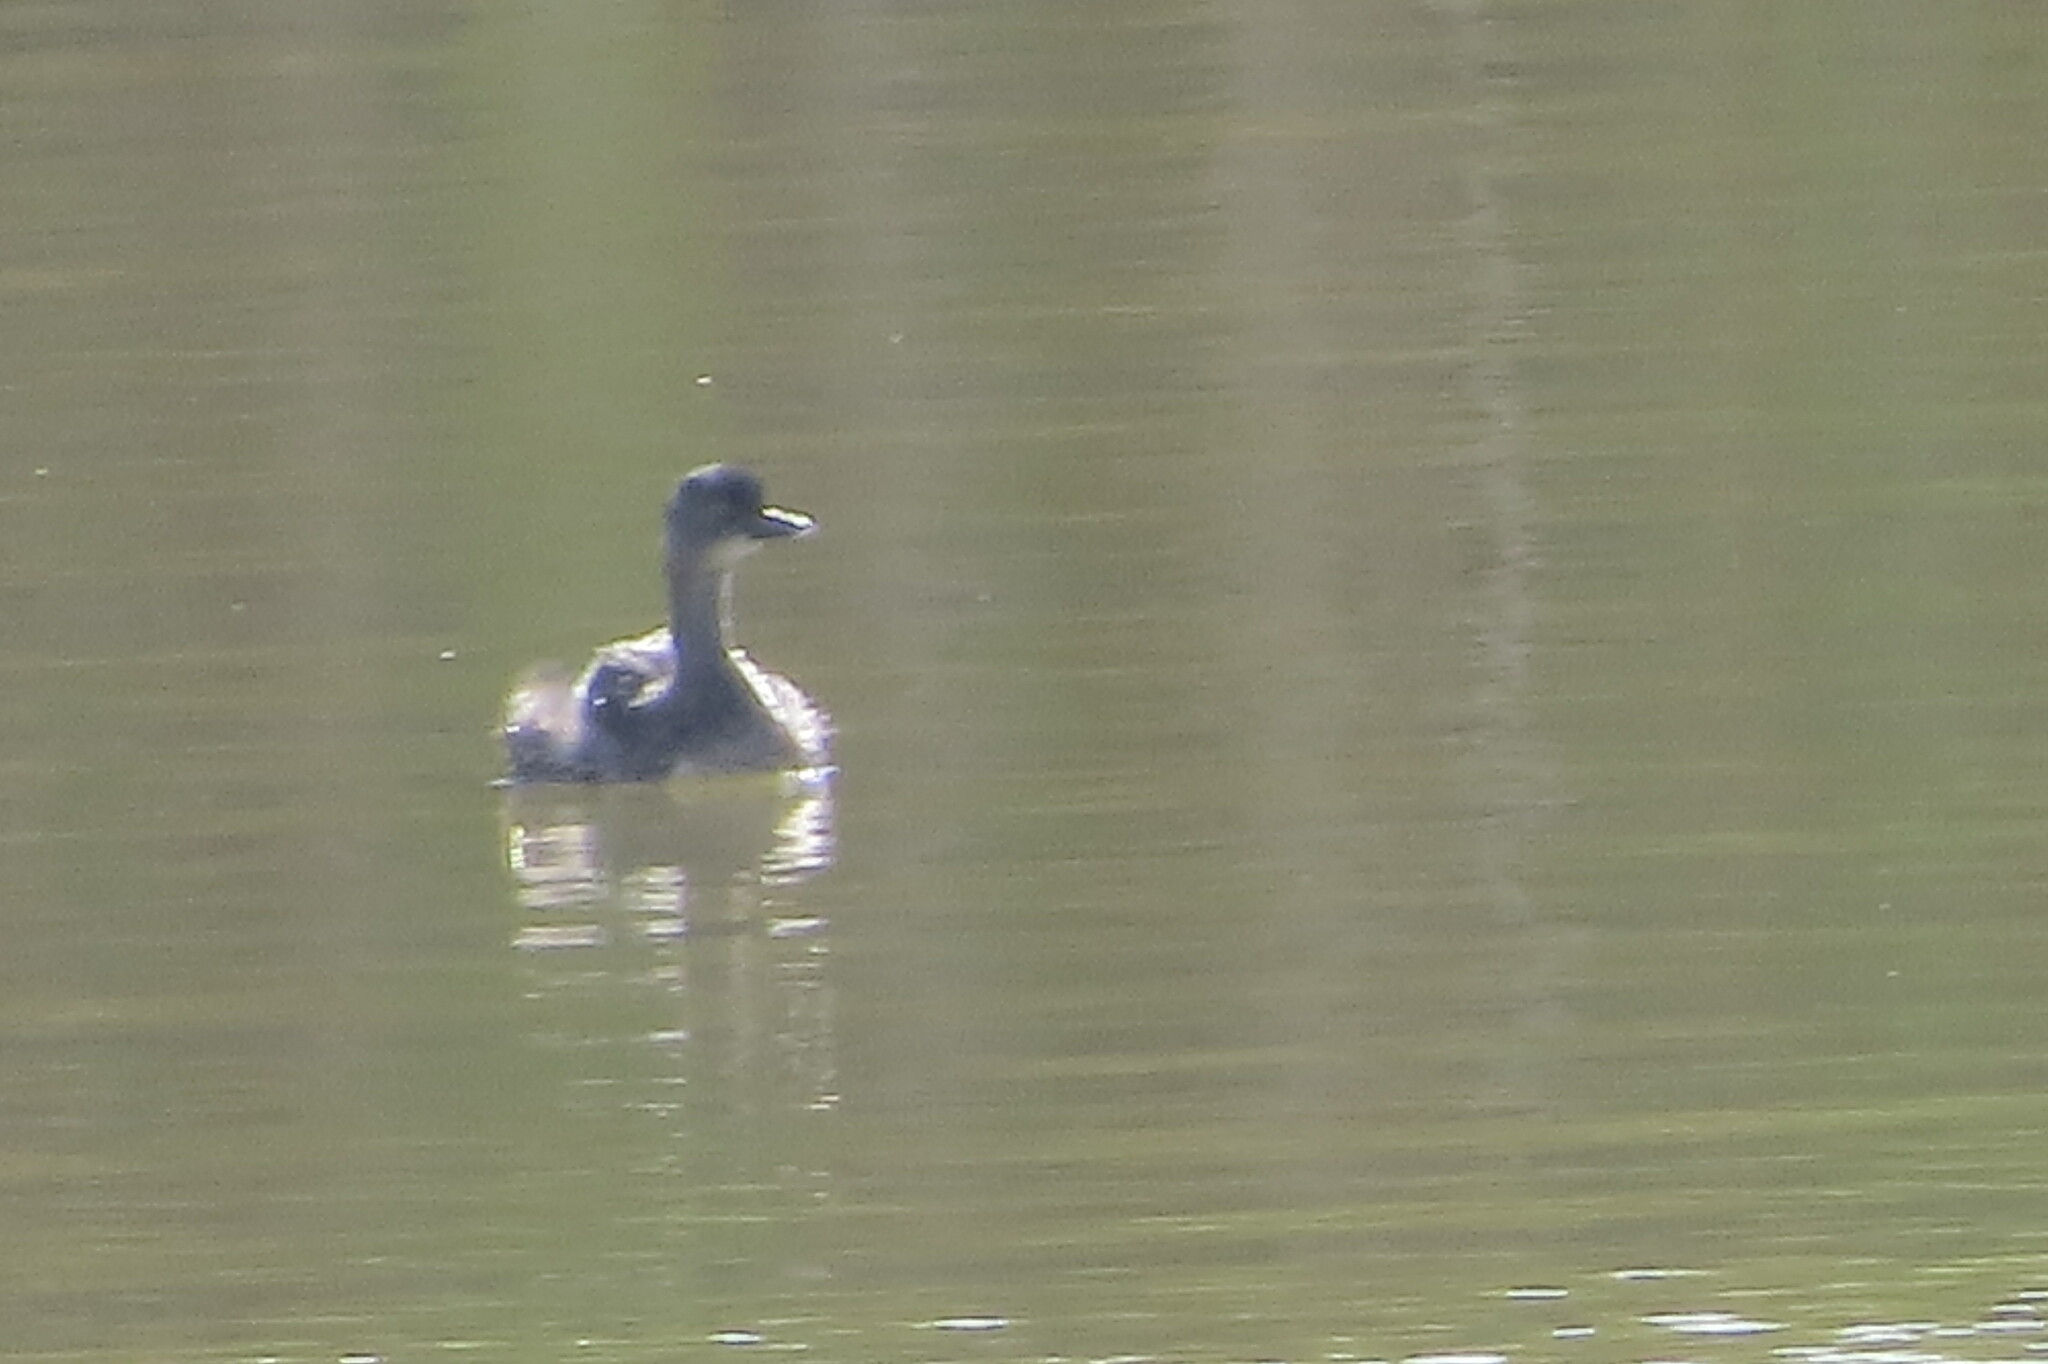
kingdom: Animalia
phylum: Chordata
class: Aves
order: Podicipediformes
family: Podicipedidae
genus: Tachybaptus
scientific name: Tachybaptus dominicus
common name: Least grebe
